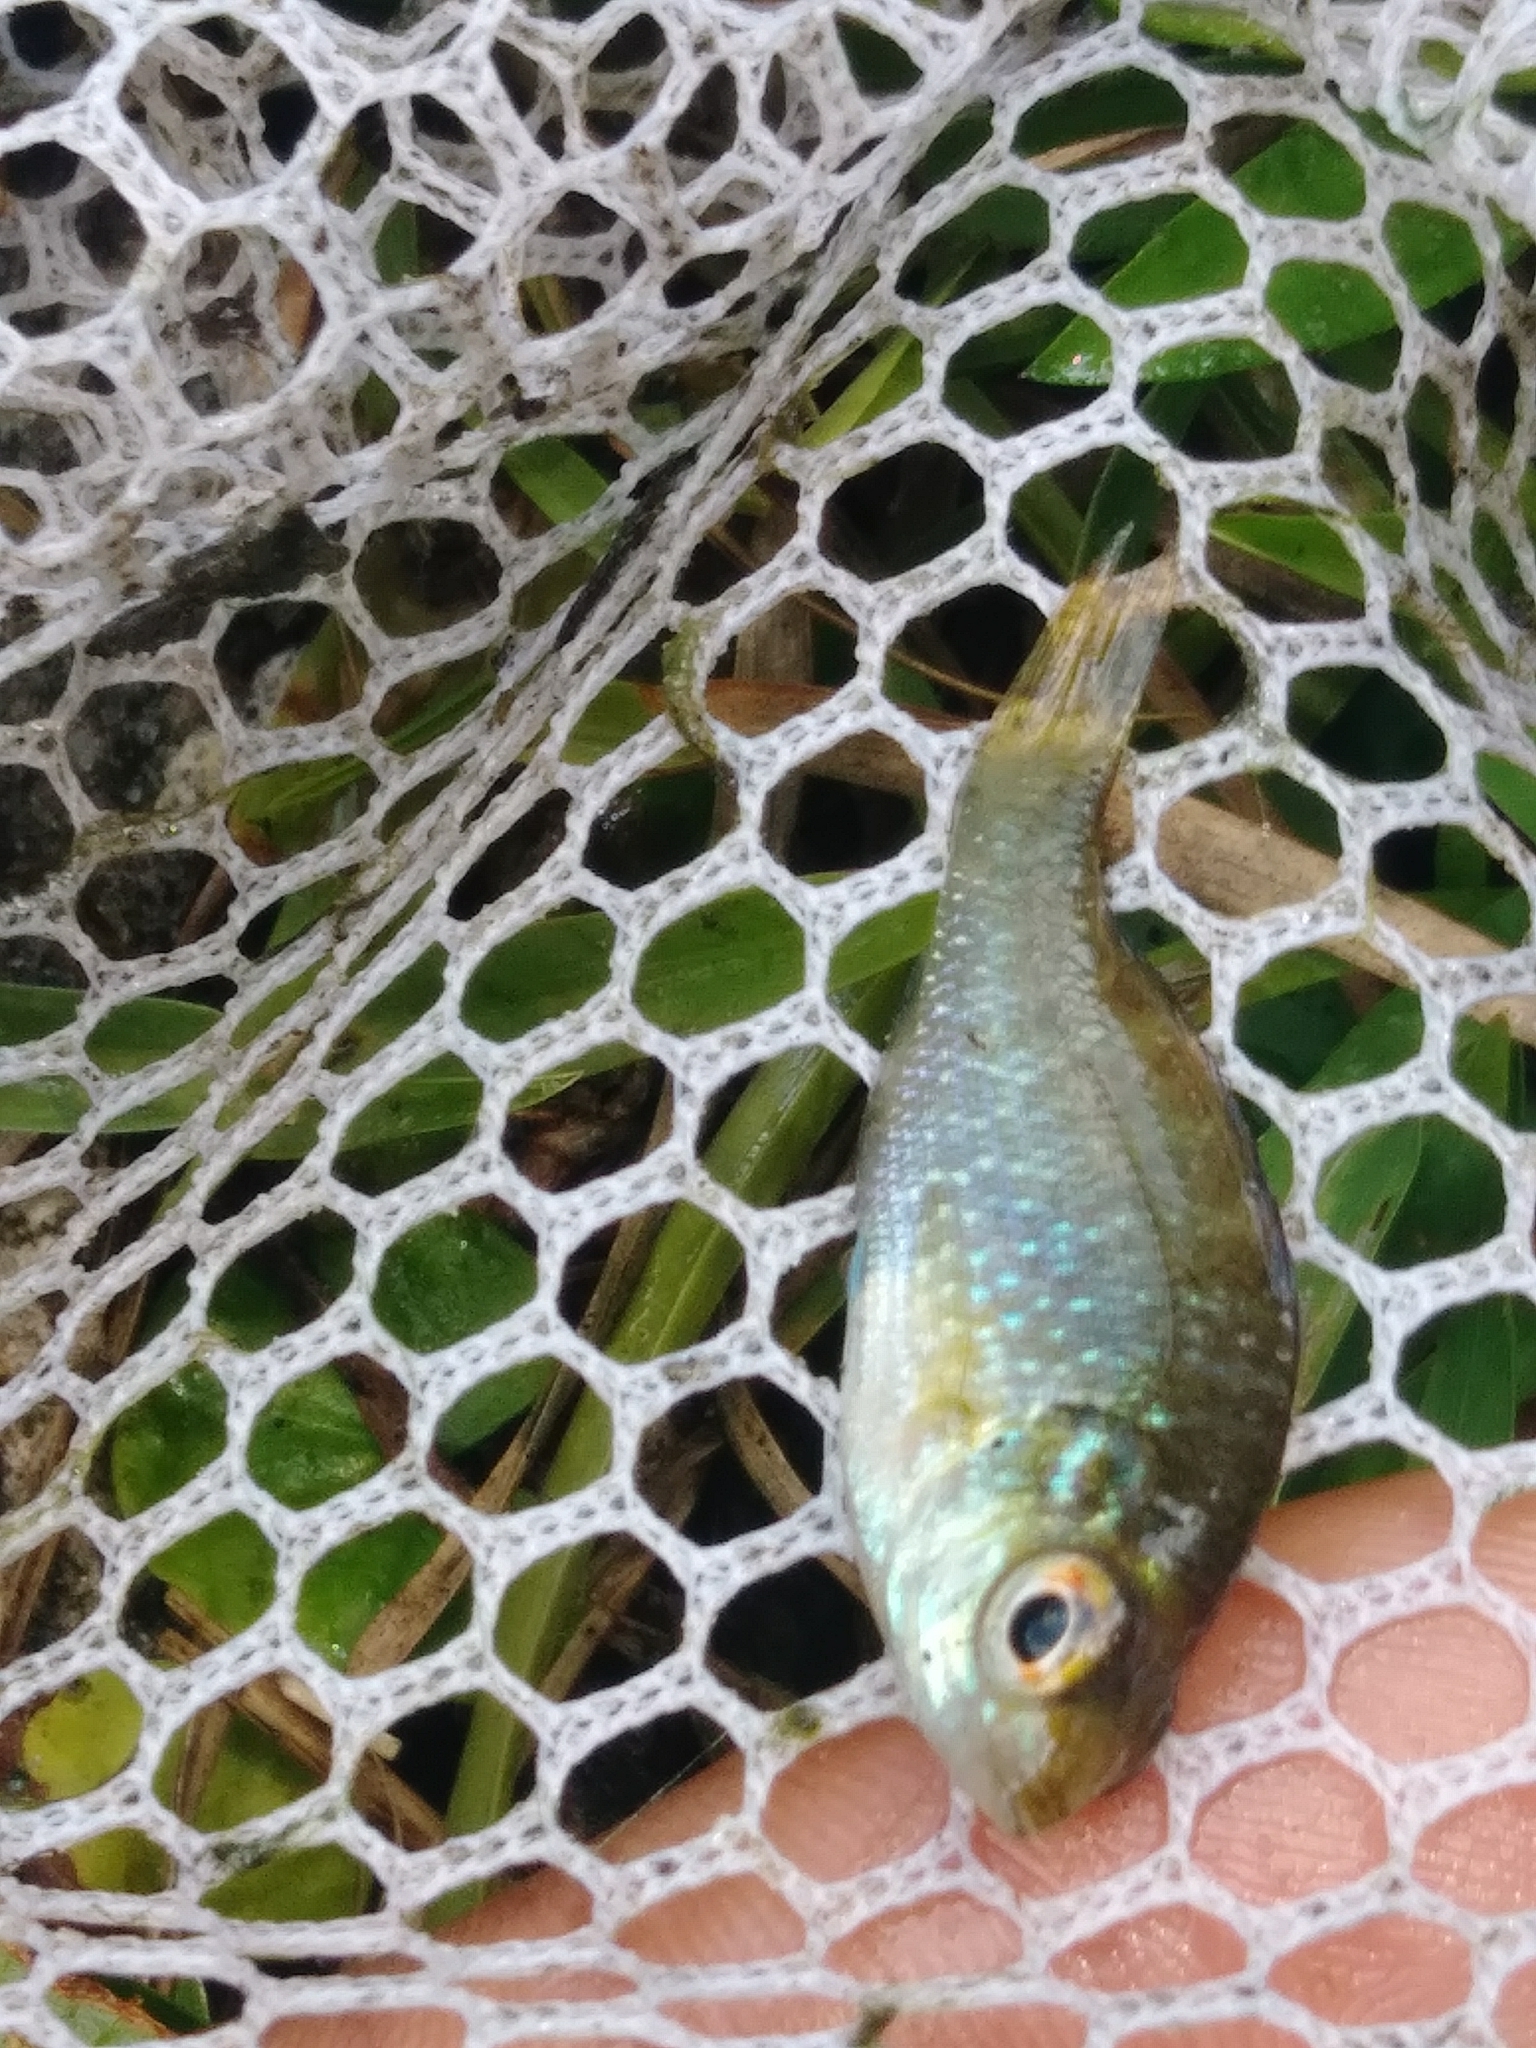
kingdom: Animalia
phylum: Chordata
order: Perciformes
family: Centrarchidae
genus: Lepomis
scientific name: Lepomis marginatus
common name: Dollar sunfish
